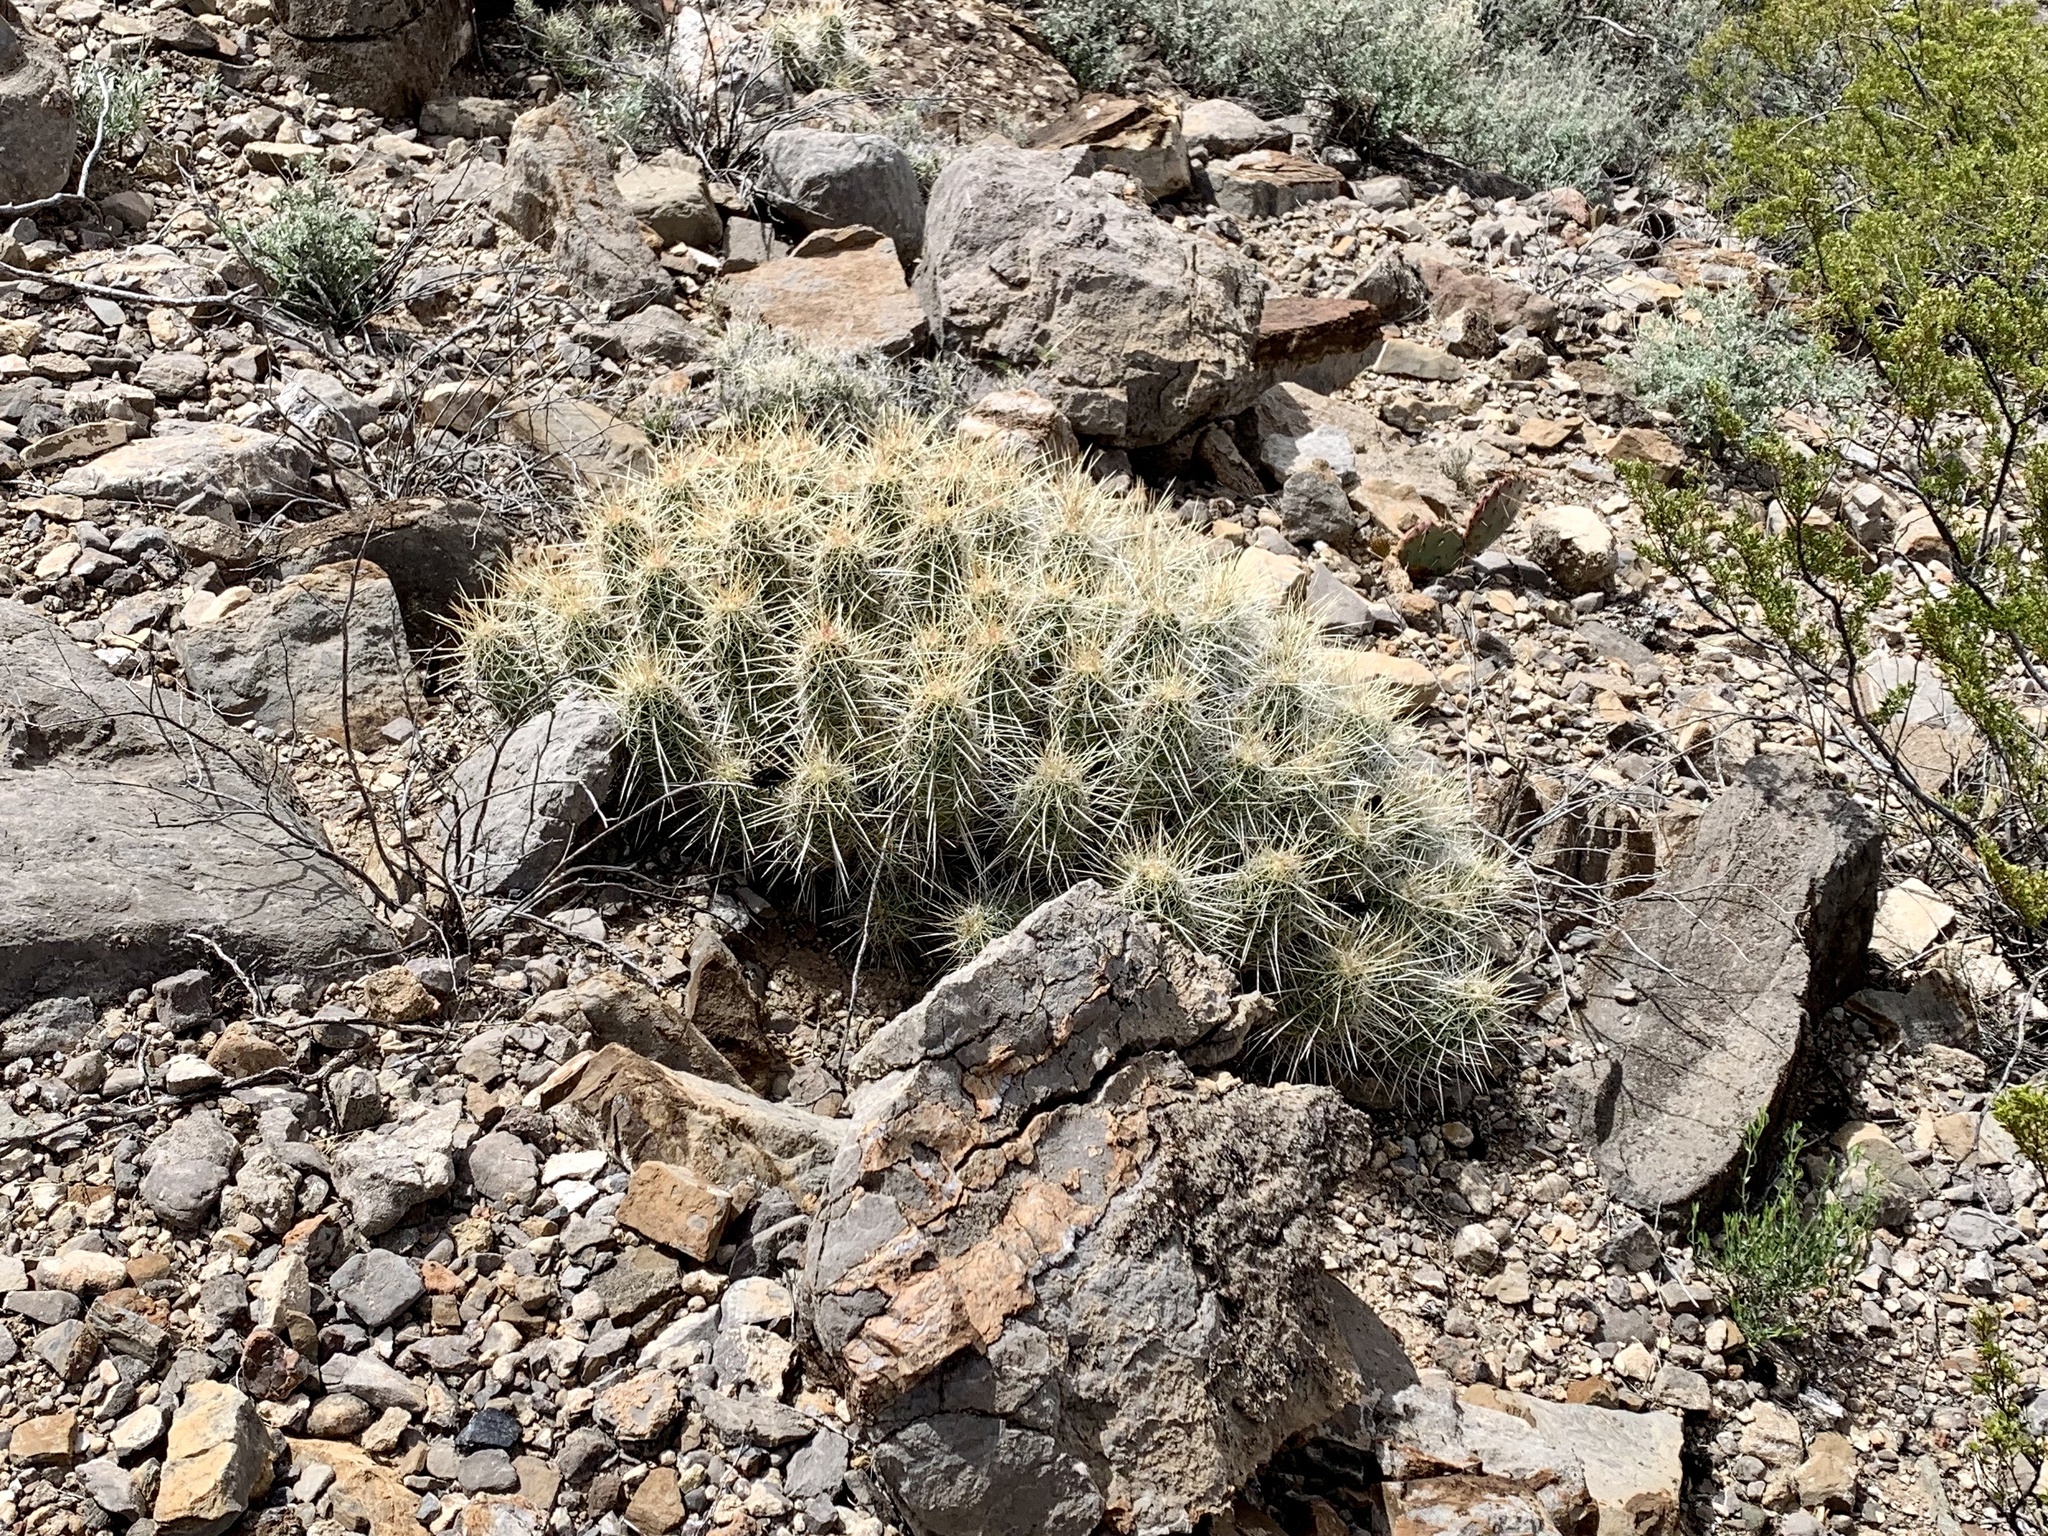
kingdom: Plantae
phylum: Tracheophyta
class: Magnoliopsida
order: Caryophyllales
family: Cactaceae
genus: Echinocereus
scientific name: Echinocereus stramineus
